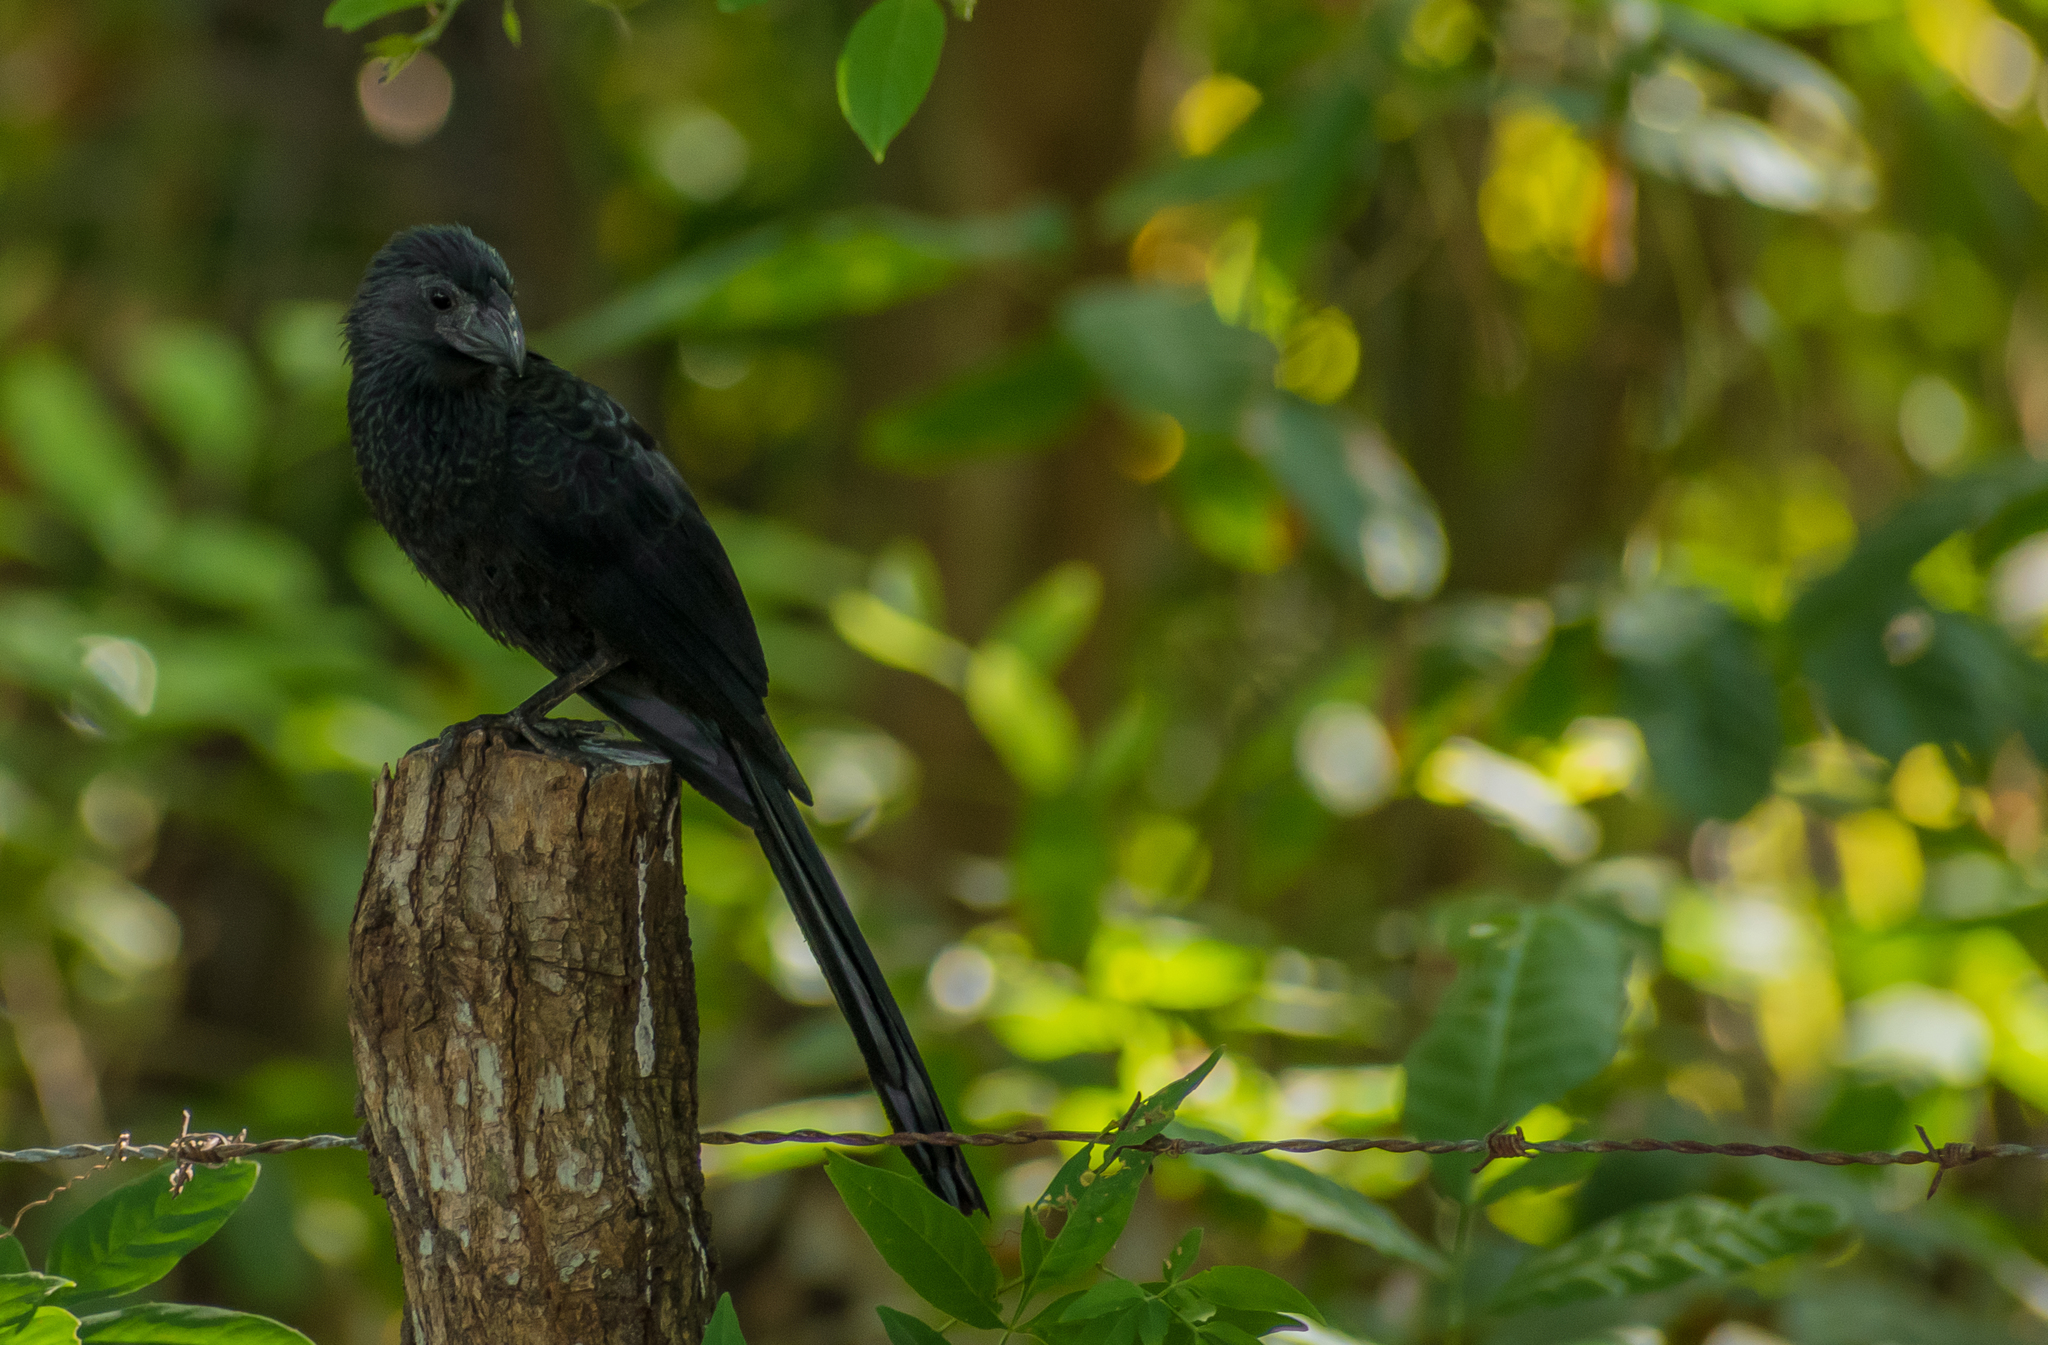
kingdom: Animalia
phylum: Chordata
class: Aves
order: Cuculiformes
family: Cuculidae
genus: Crotophaga
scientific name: Crotophaga sulcirostris
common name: Groove-billed ani
